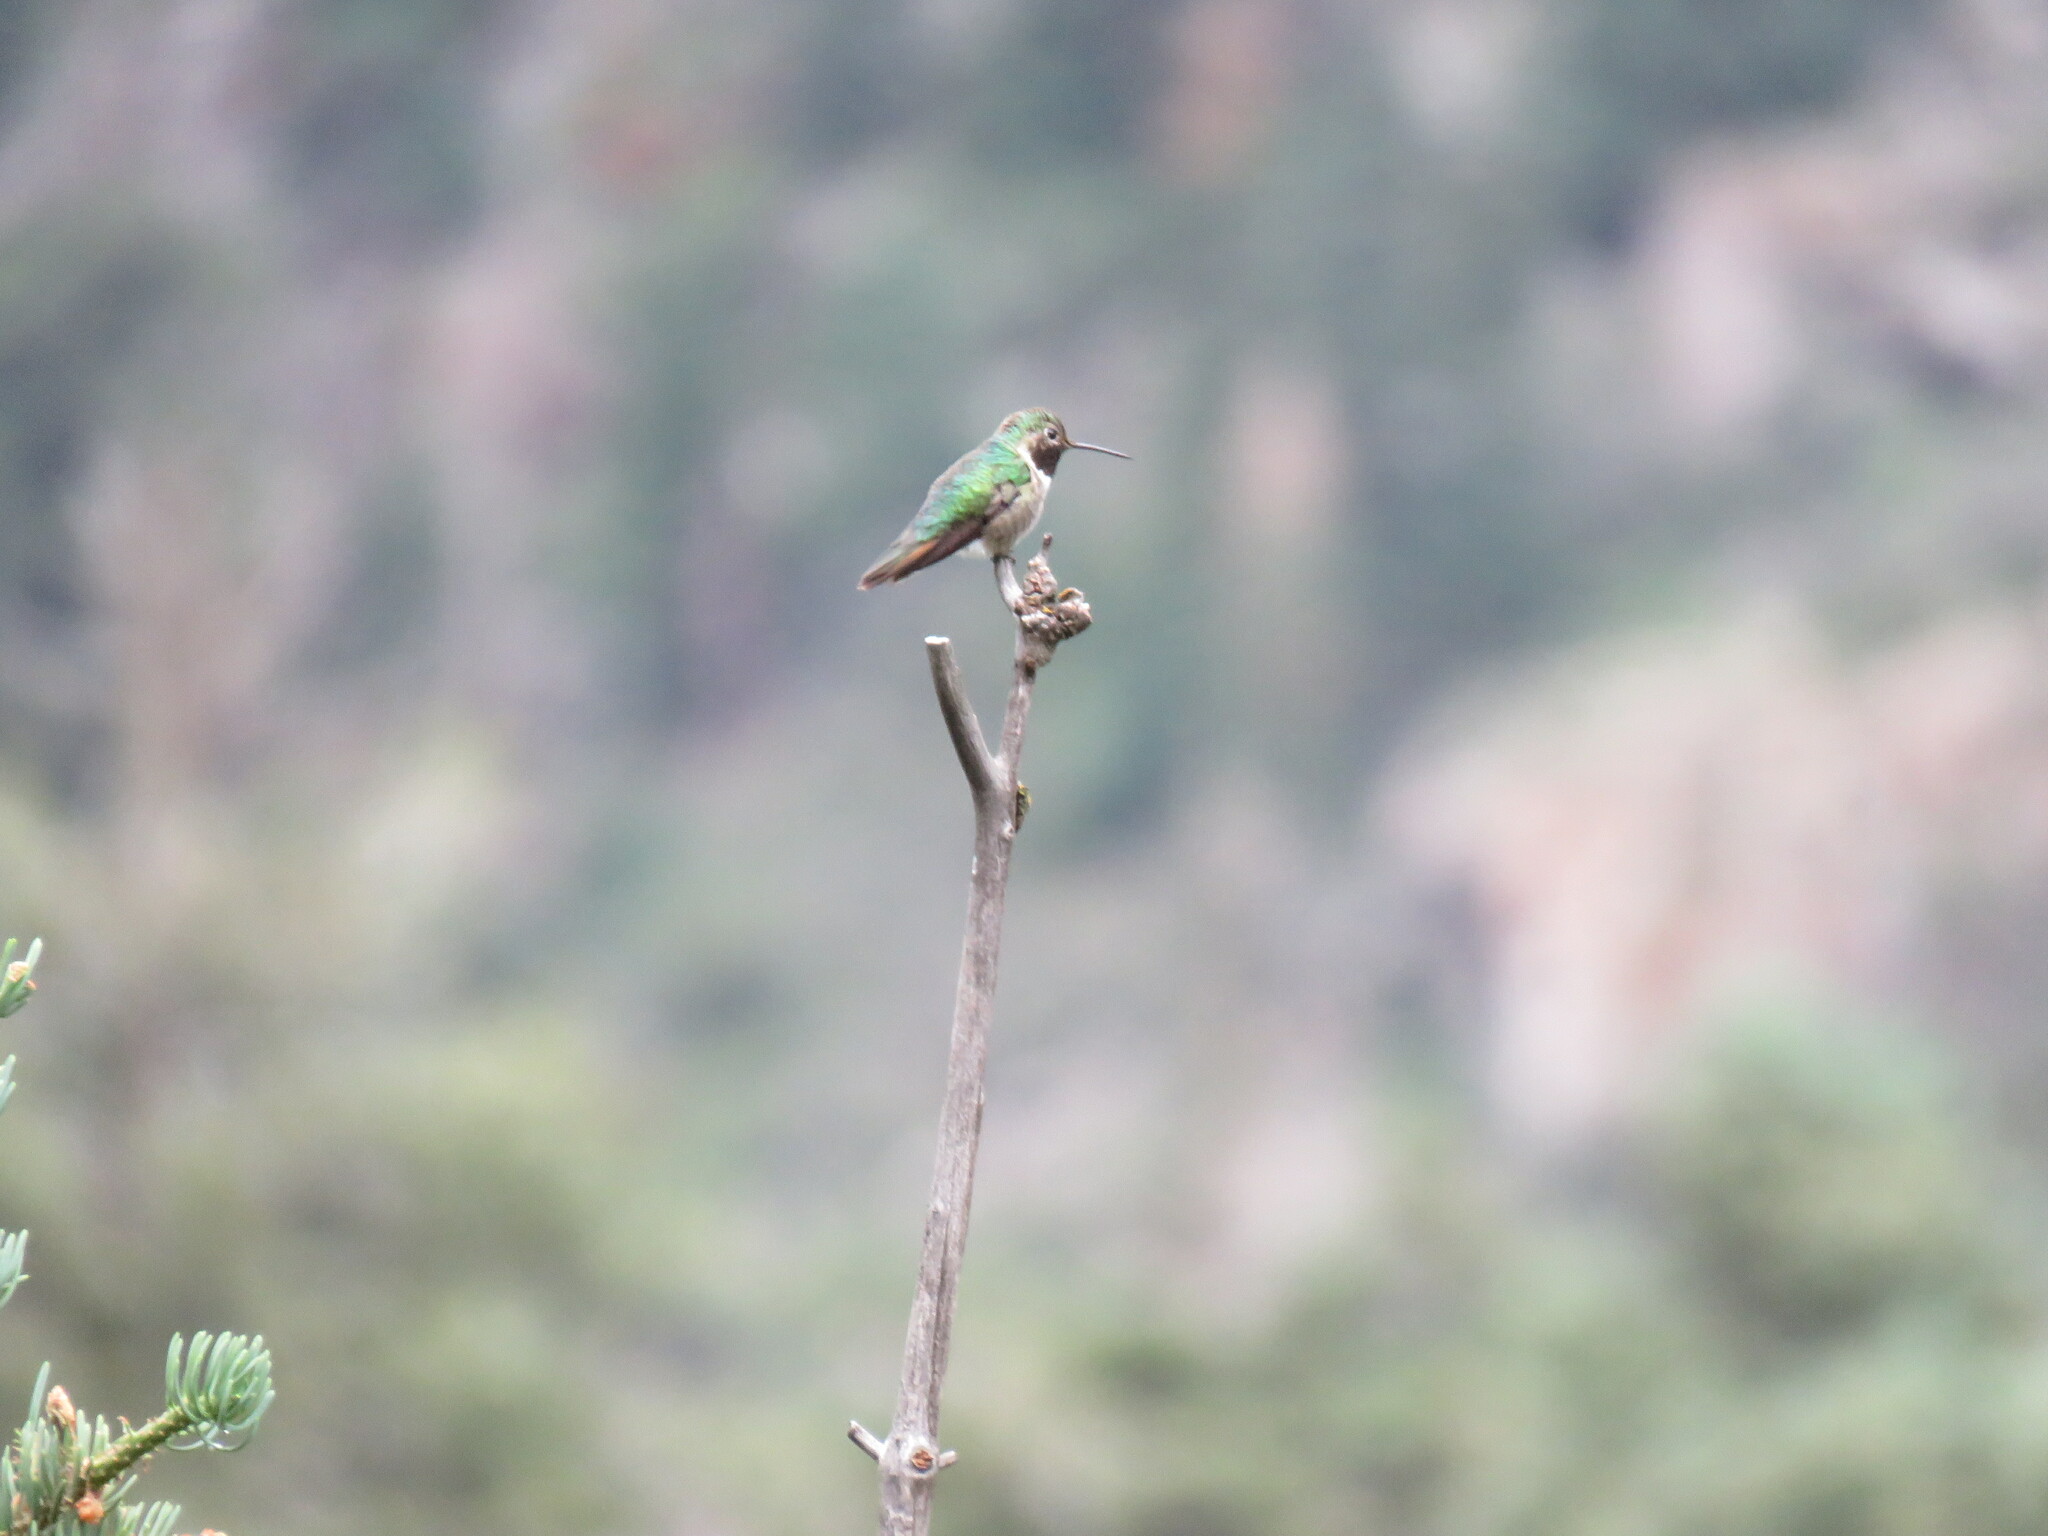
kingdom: Animalia
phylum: Chordata
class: Aves
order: Apodiformes
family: Trochilidae
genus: Selasphorus
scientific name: Selasphorus platycercus
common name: Broad-tailed hummingbird
